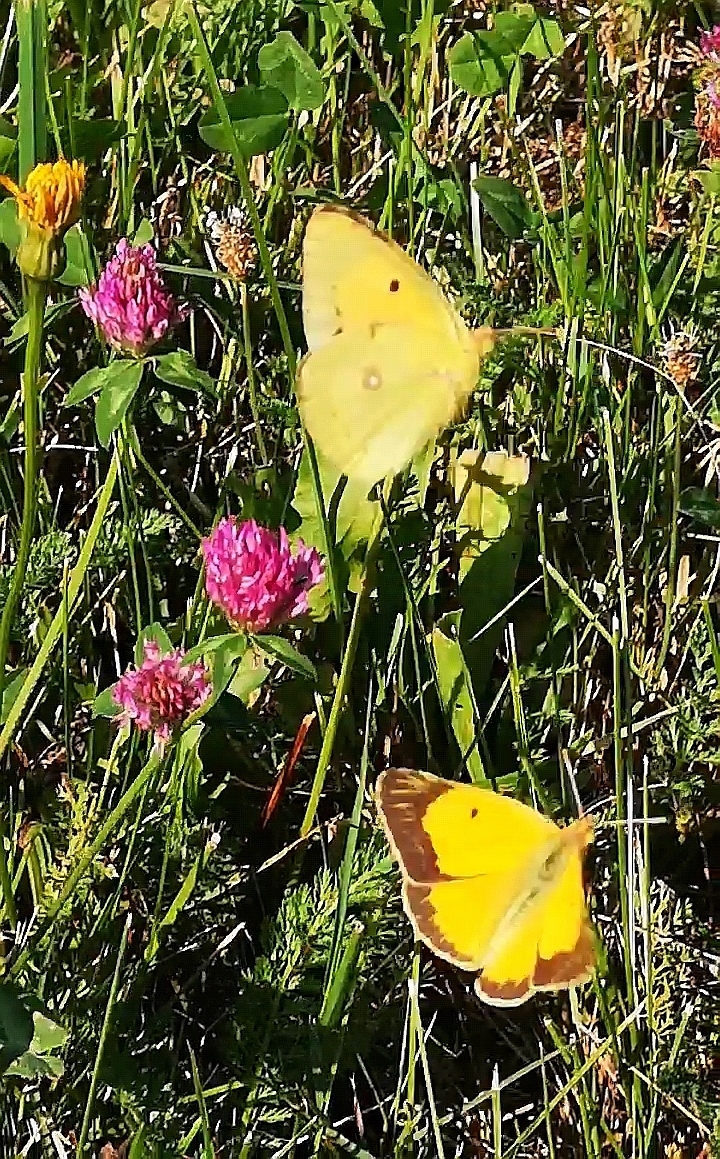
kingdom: Animalia
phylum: Arthropoda
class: Insecta
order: Lepidoptera
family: Pieridae
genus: Colias
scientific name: Colias croceus
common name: Clouded yellow
